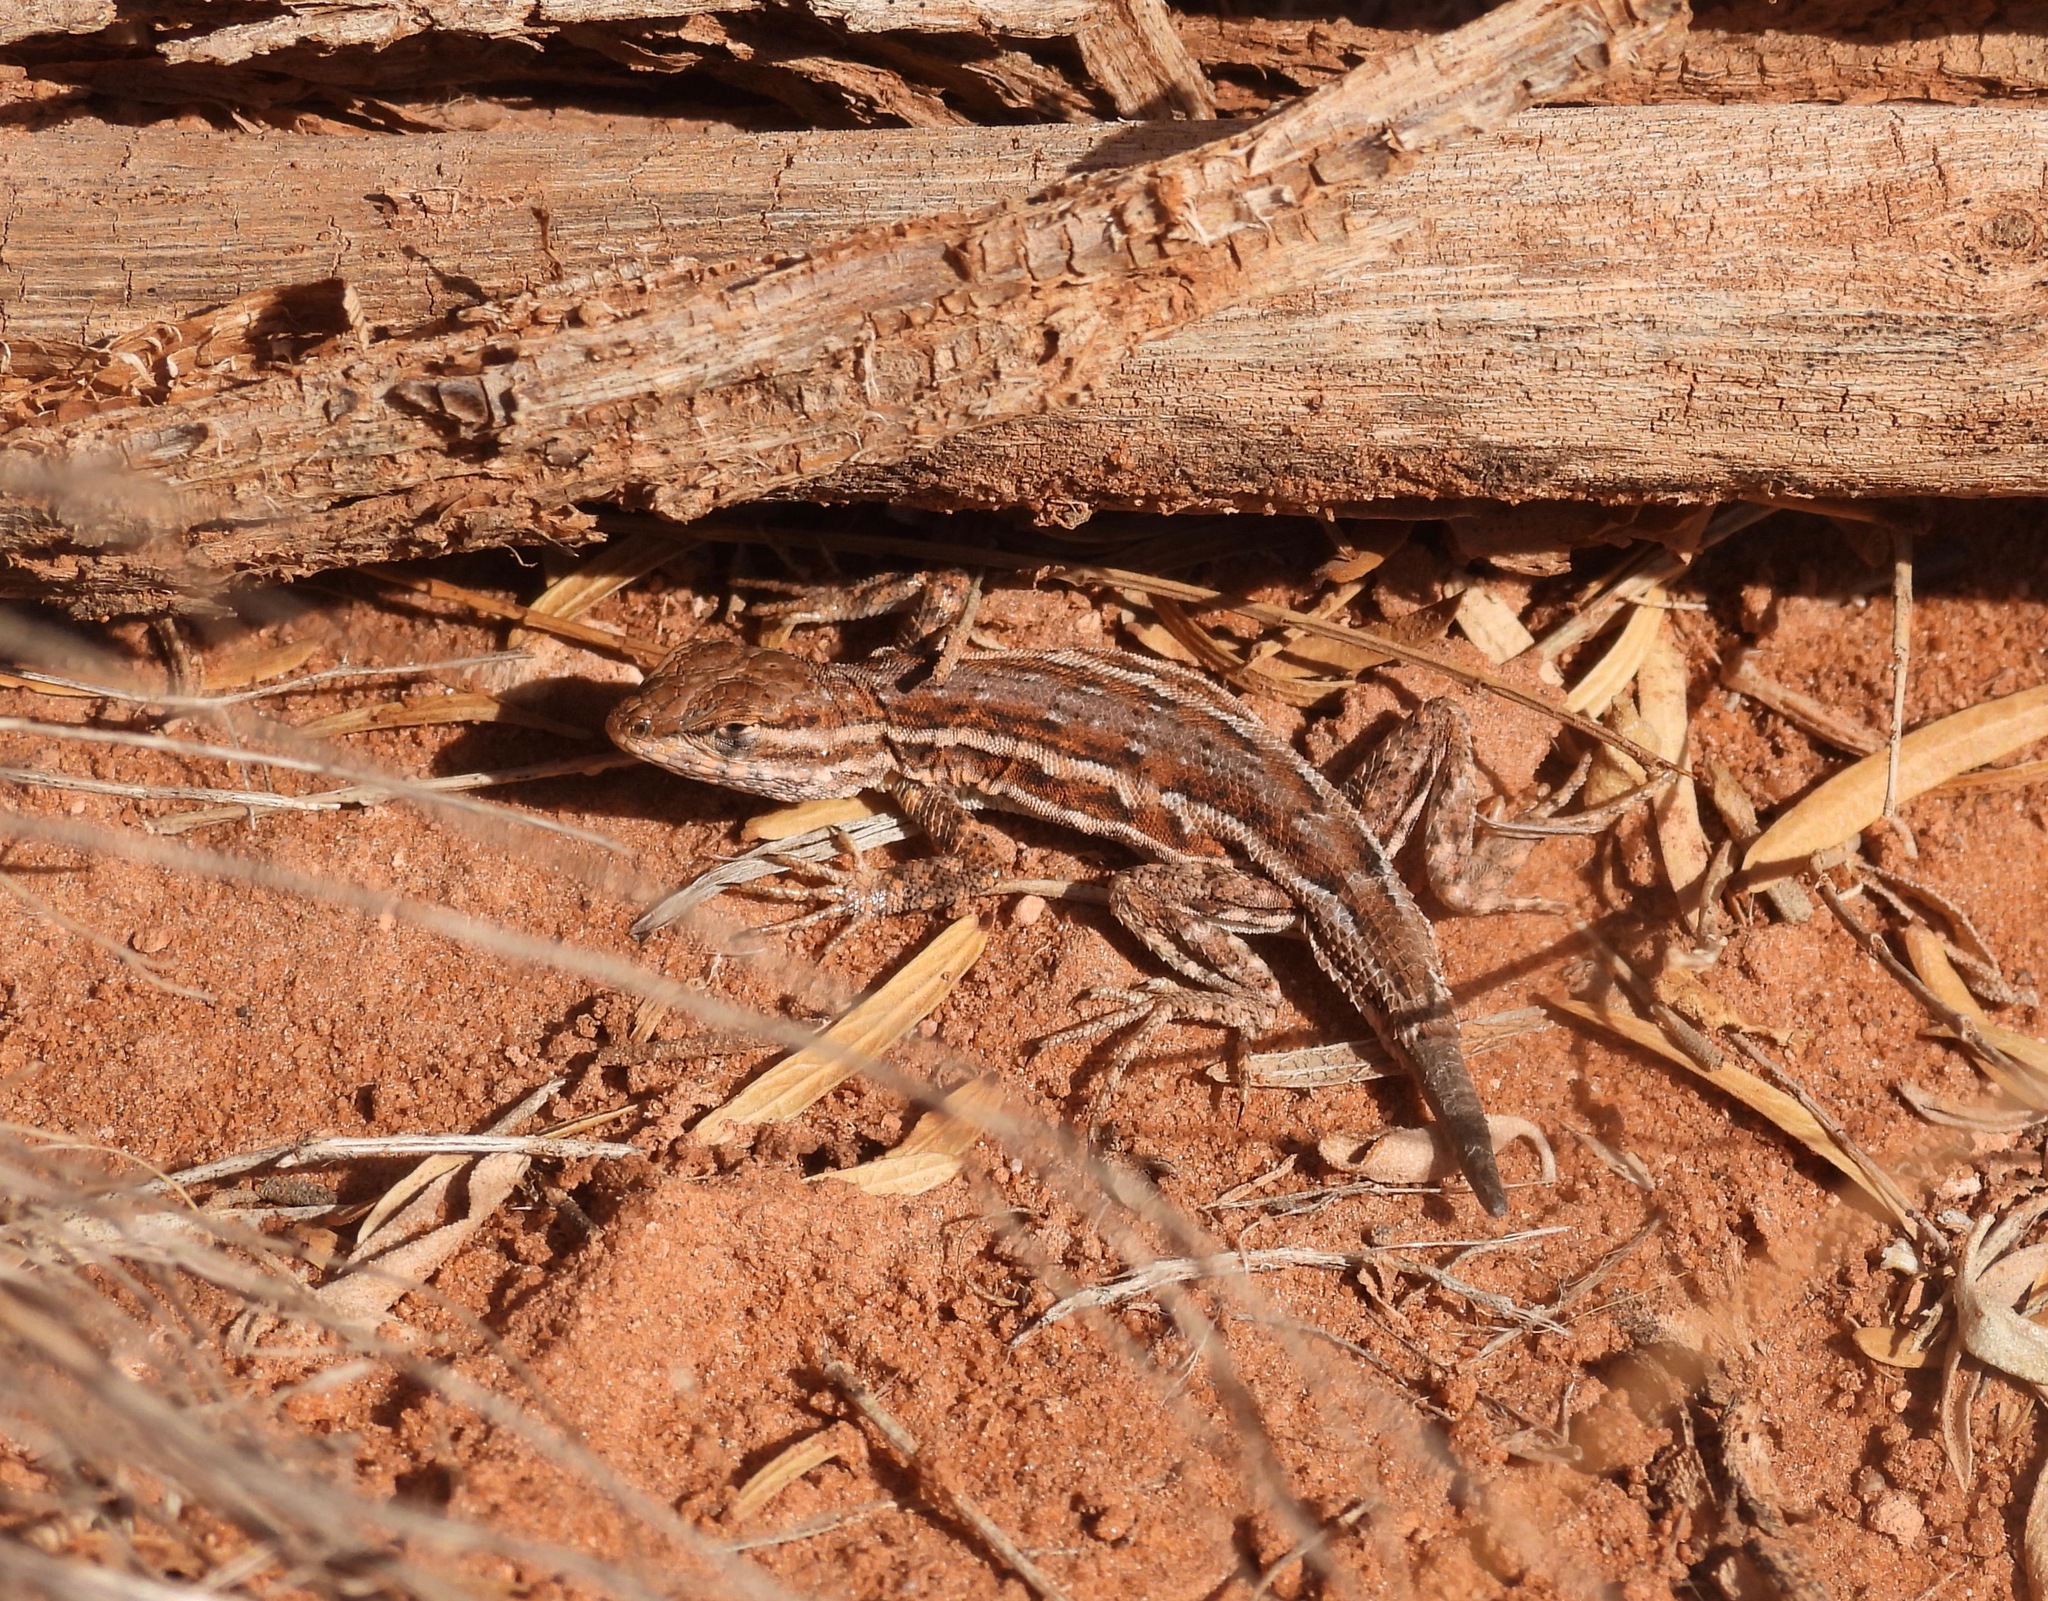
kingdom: Animalia
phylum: Chordata
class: Squamata
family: Phrynosomatidae
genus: Uta
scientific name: Uta stansburiana
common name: Side-blotched lizard
